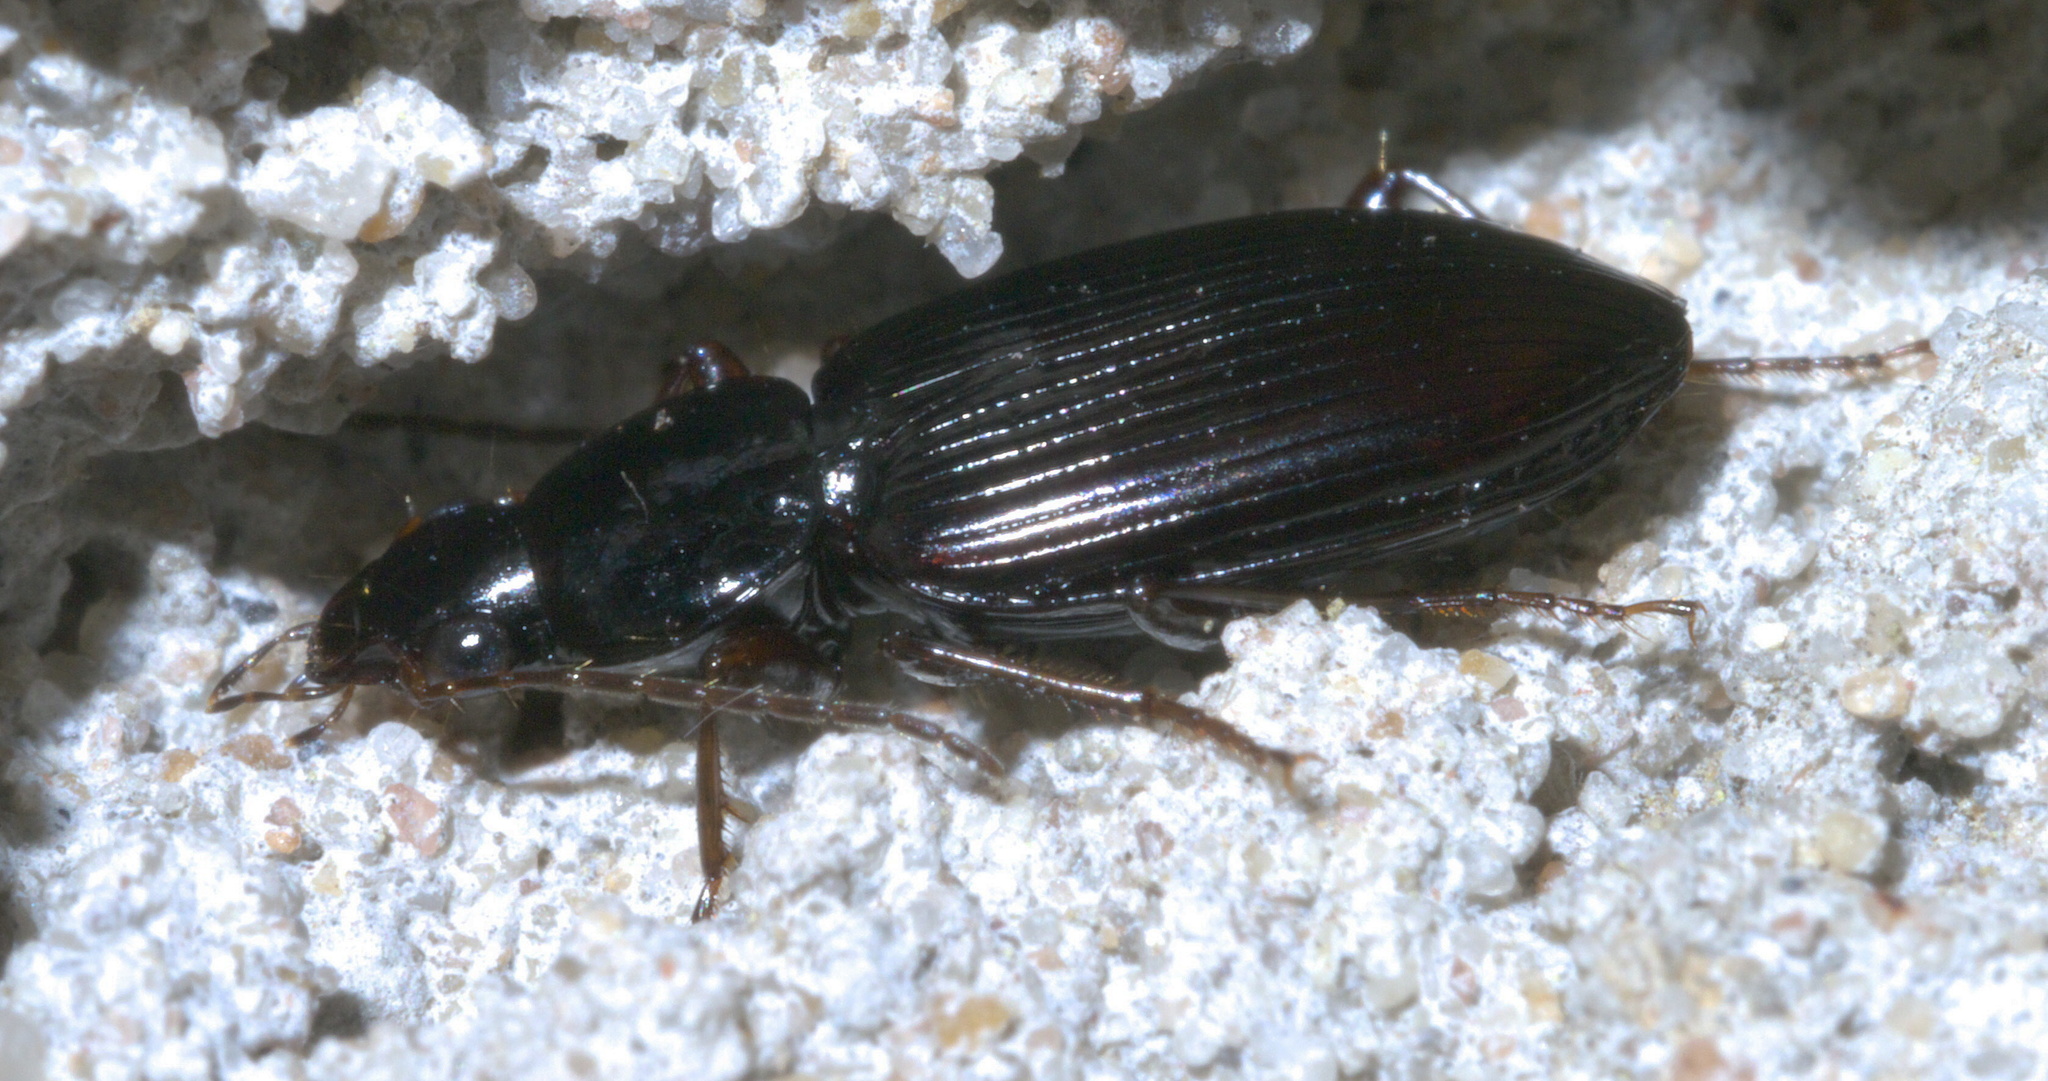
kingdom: Animalia
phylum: Arthropoda
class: Insecta
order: Coleoptera
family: Carabidae
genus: Agonum
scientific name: Agonum punctiforme
